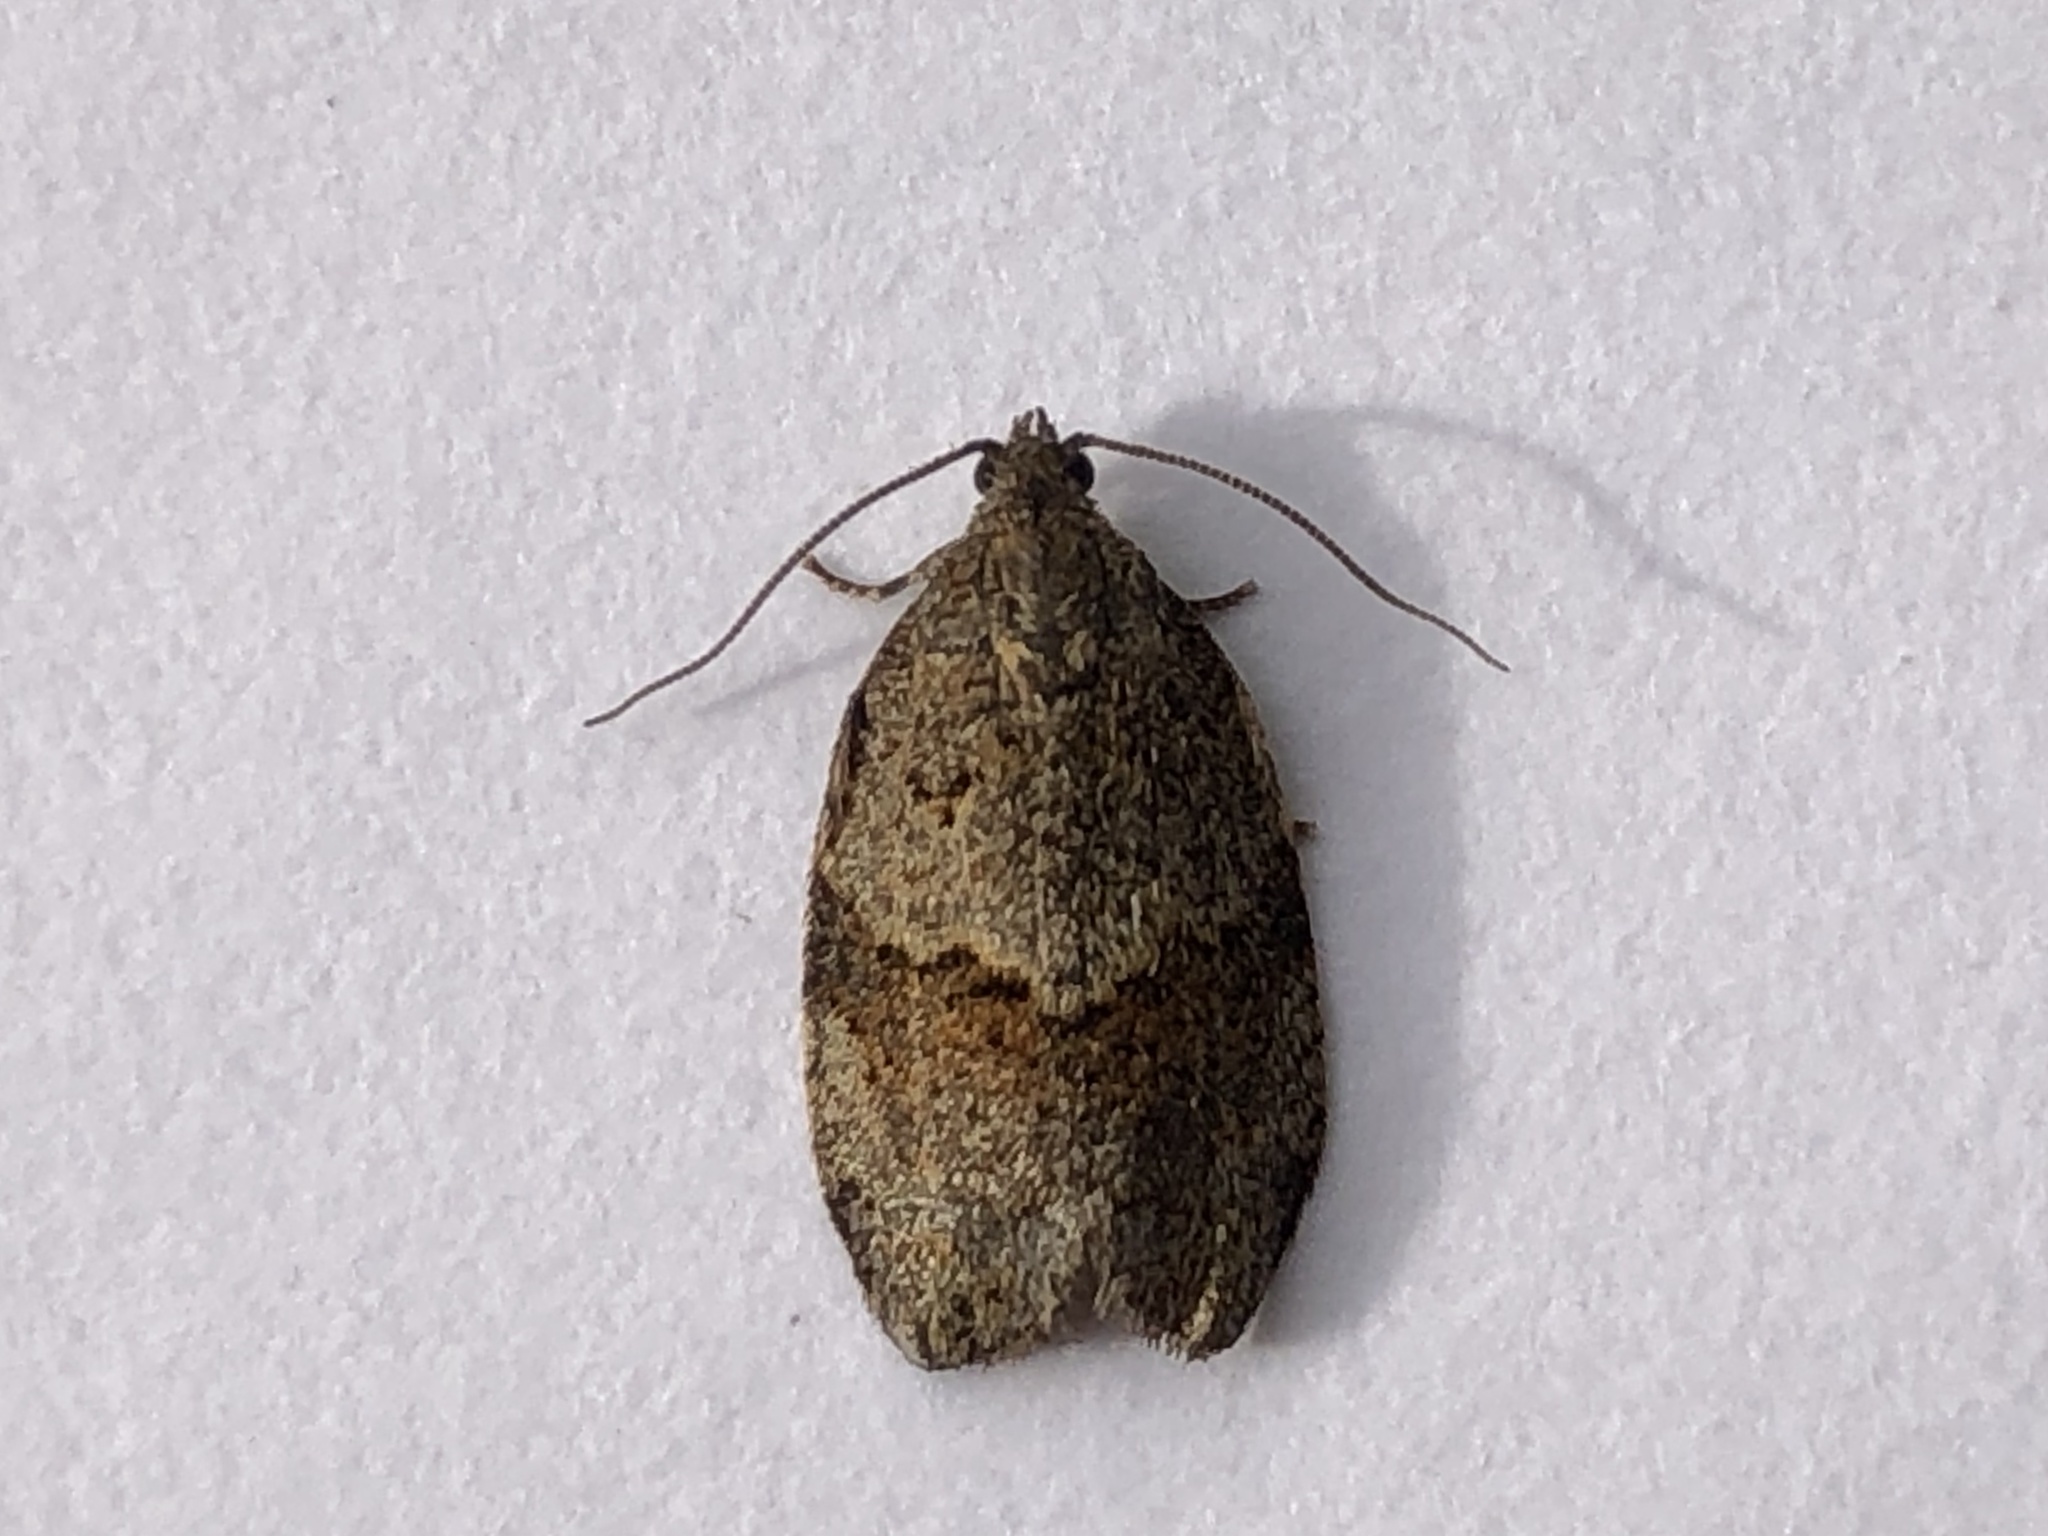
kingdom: Animalia
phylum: Arthropoda
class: Insecta
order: Lepidoptera
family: Tortricidae
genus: Syndemis
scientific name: Syndemis musculana
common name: Dark-barred twist
